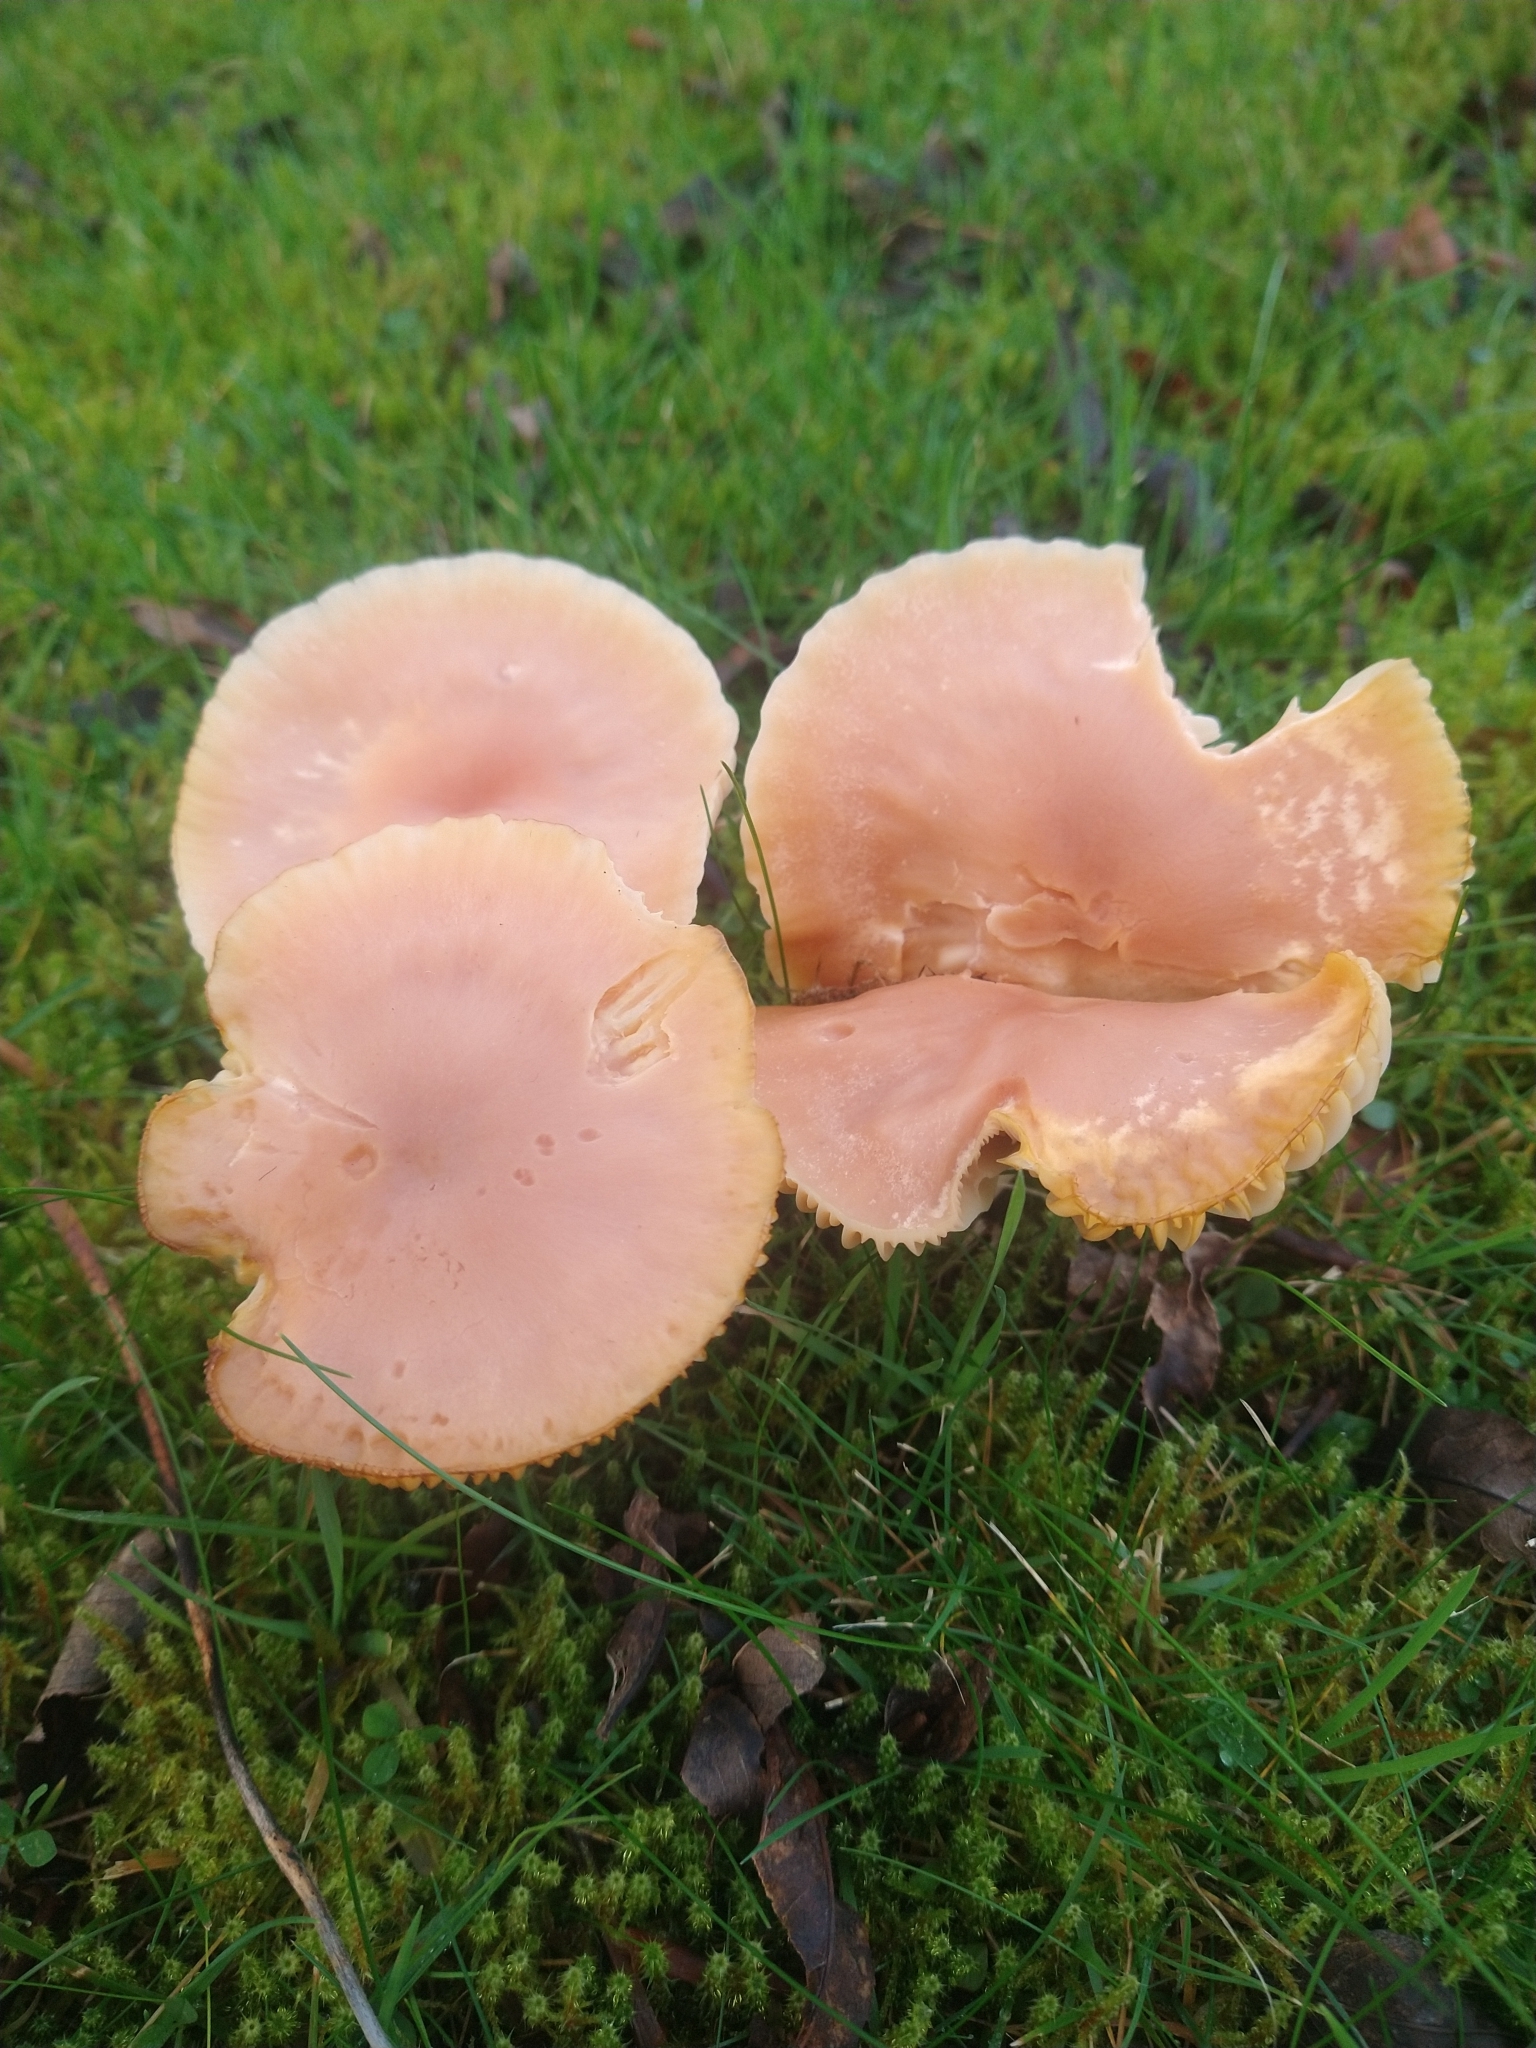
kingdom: Fungi
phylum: Basidiomycota
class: Agaricomycetes
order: Agaricales
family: Hygrophoraceae
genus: Cuphophyllus
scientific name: Cuphophyllus pratensis
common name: Meadow waxcap
